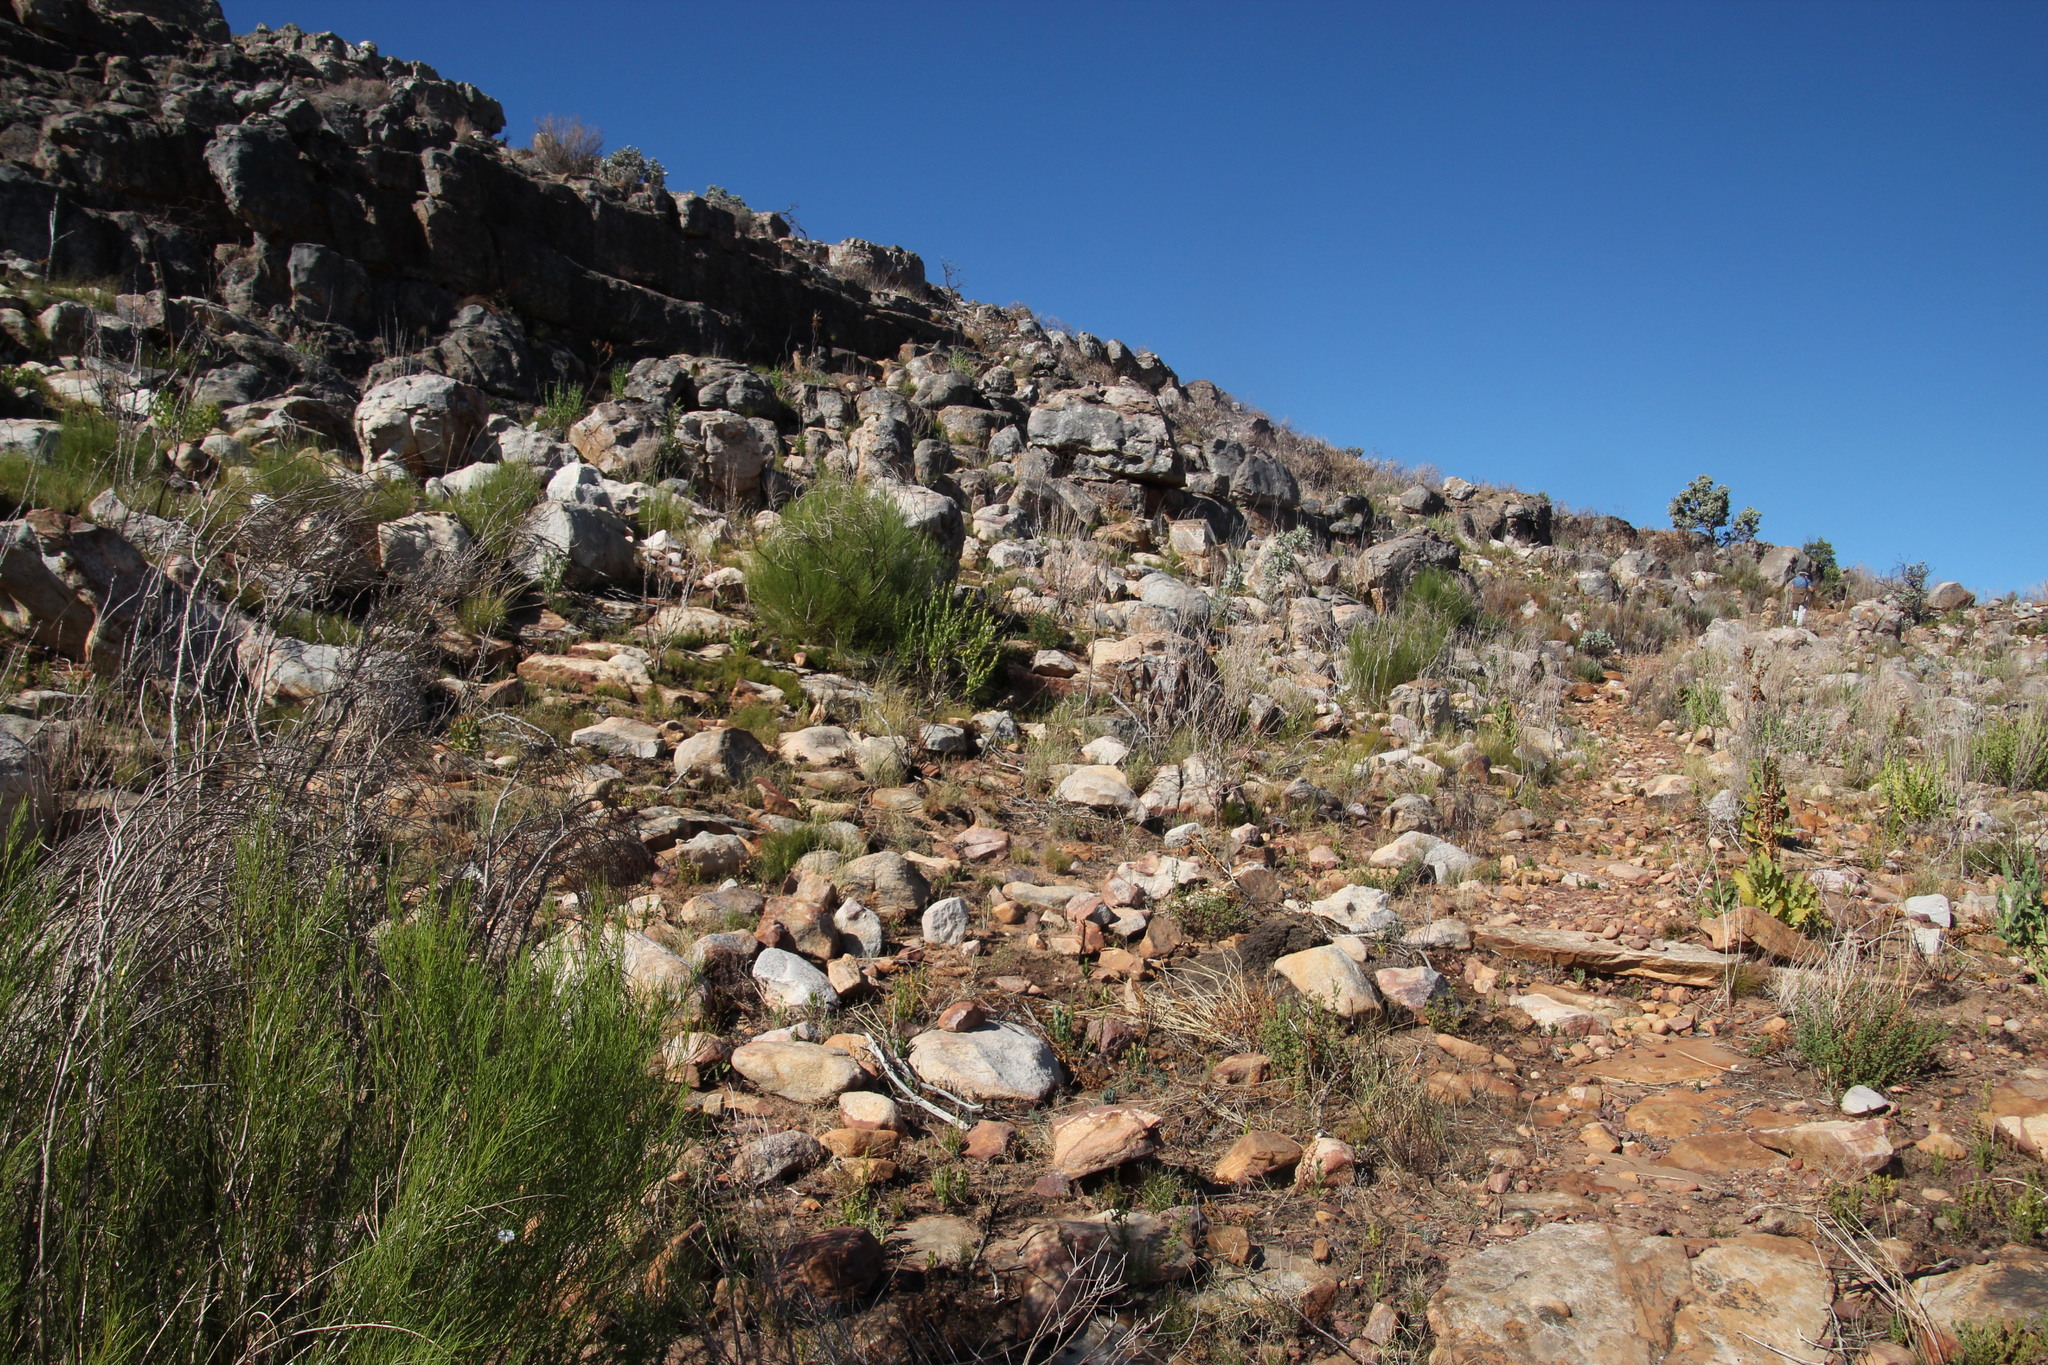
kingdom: Plantae
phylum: Tracheophyta
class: Magnoliopsida
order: Fabales
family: Fabaceae
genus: Psoralea
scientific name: Psoralea
